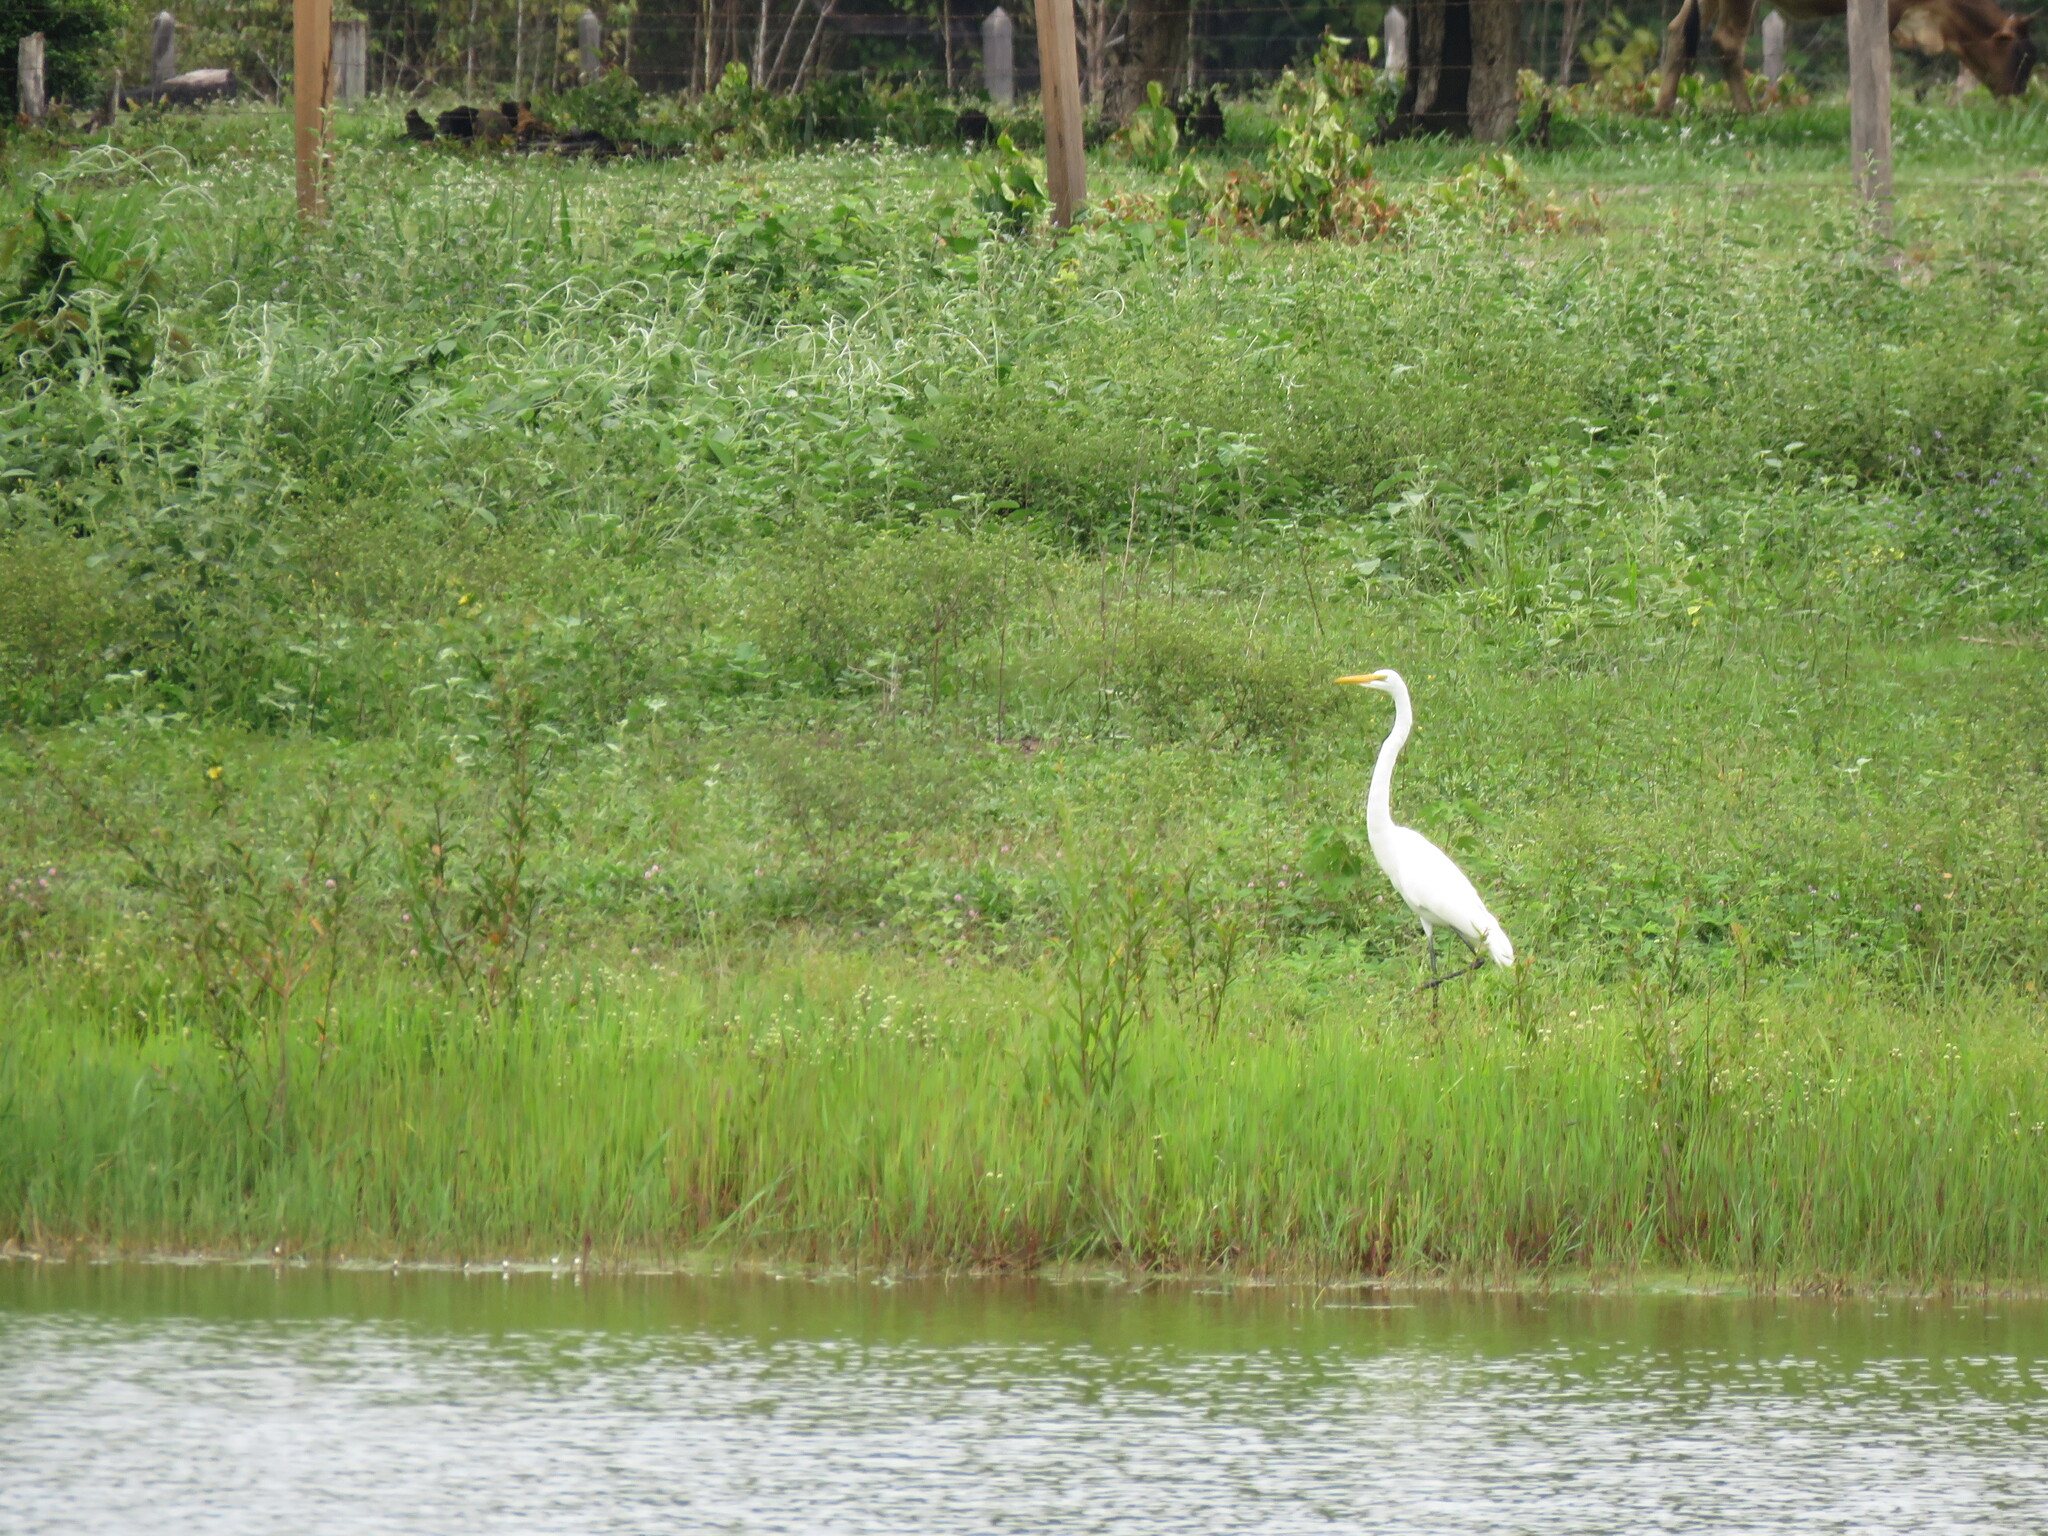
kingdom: Animalia
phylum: Chordata
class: Aves
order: Pelecaniformes
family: Ardeidae
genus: Ardea
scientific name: Ardea alba
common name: Great egret
